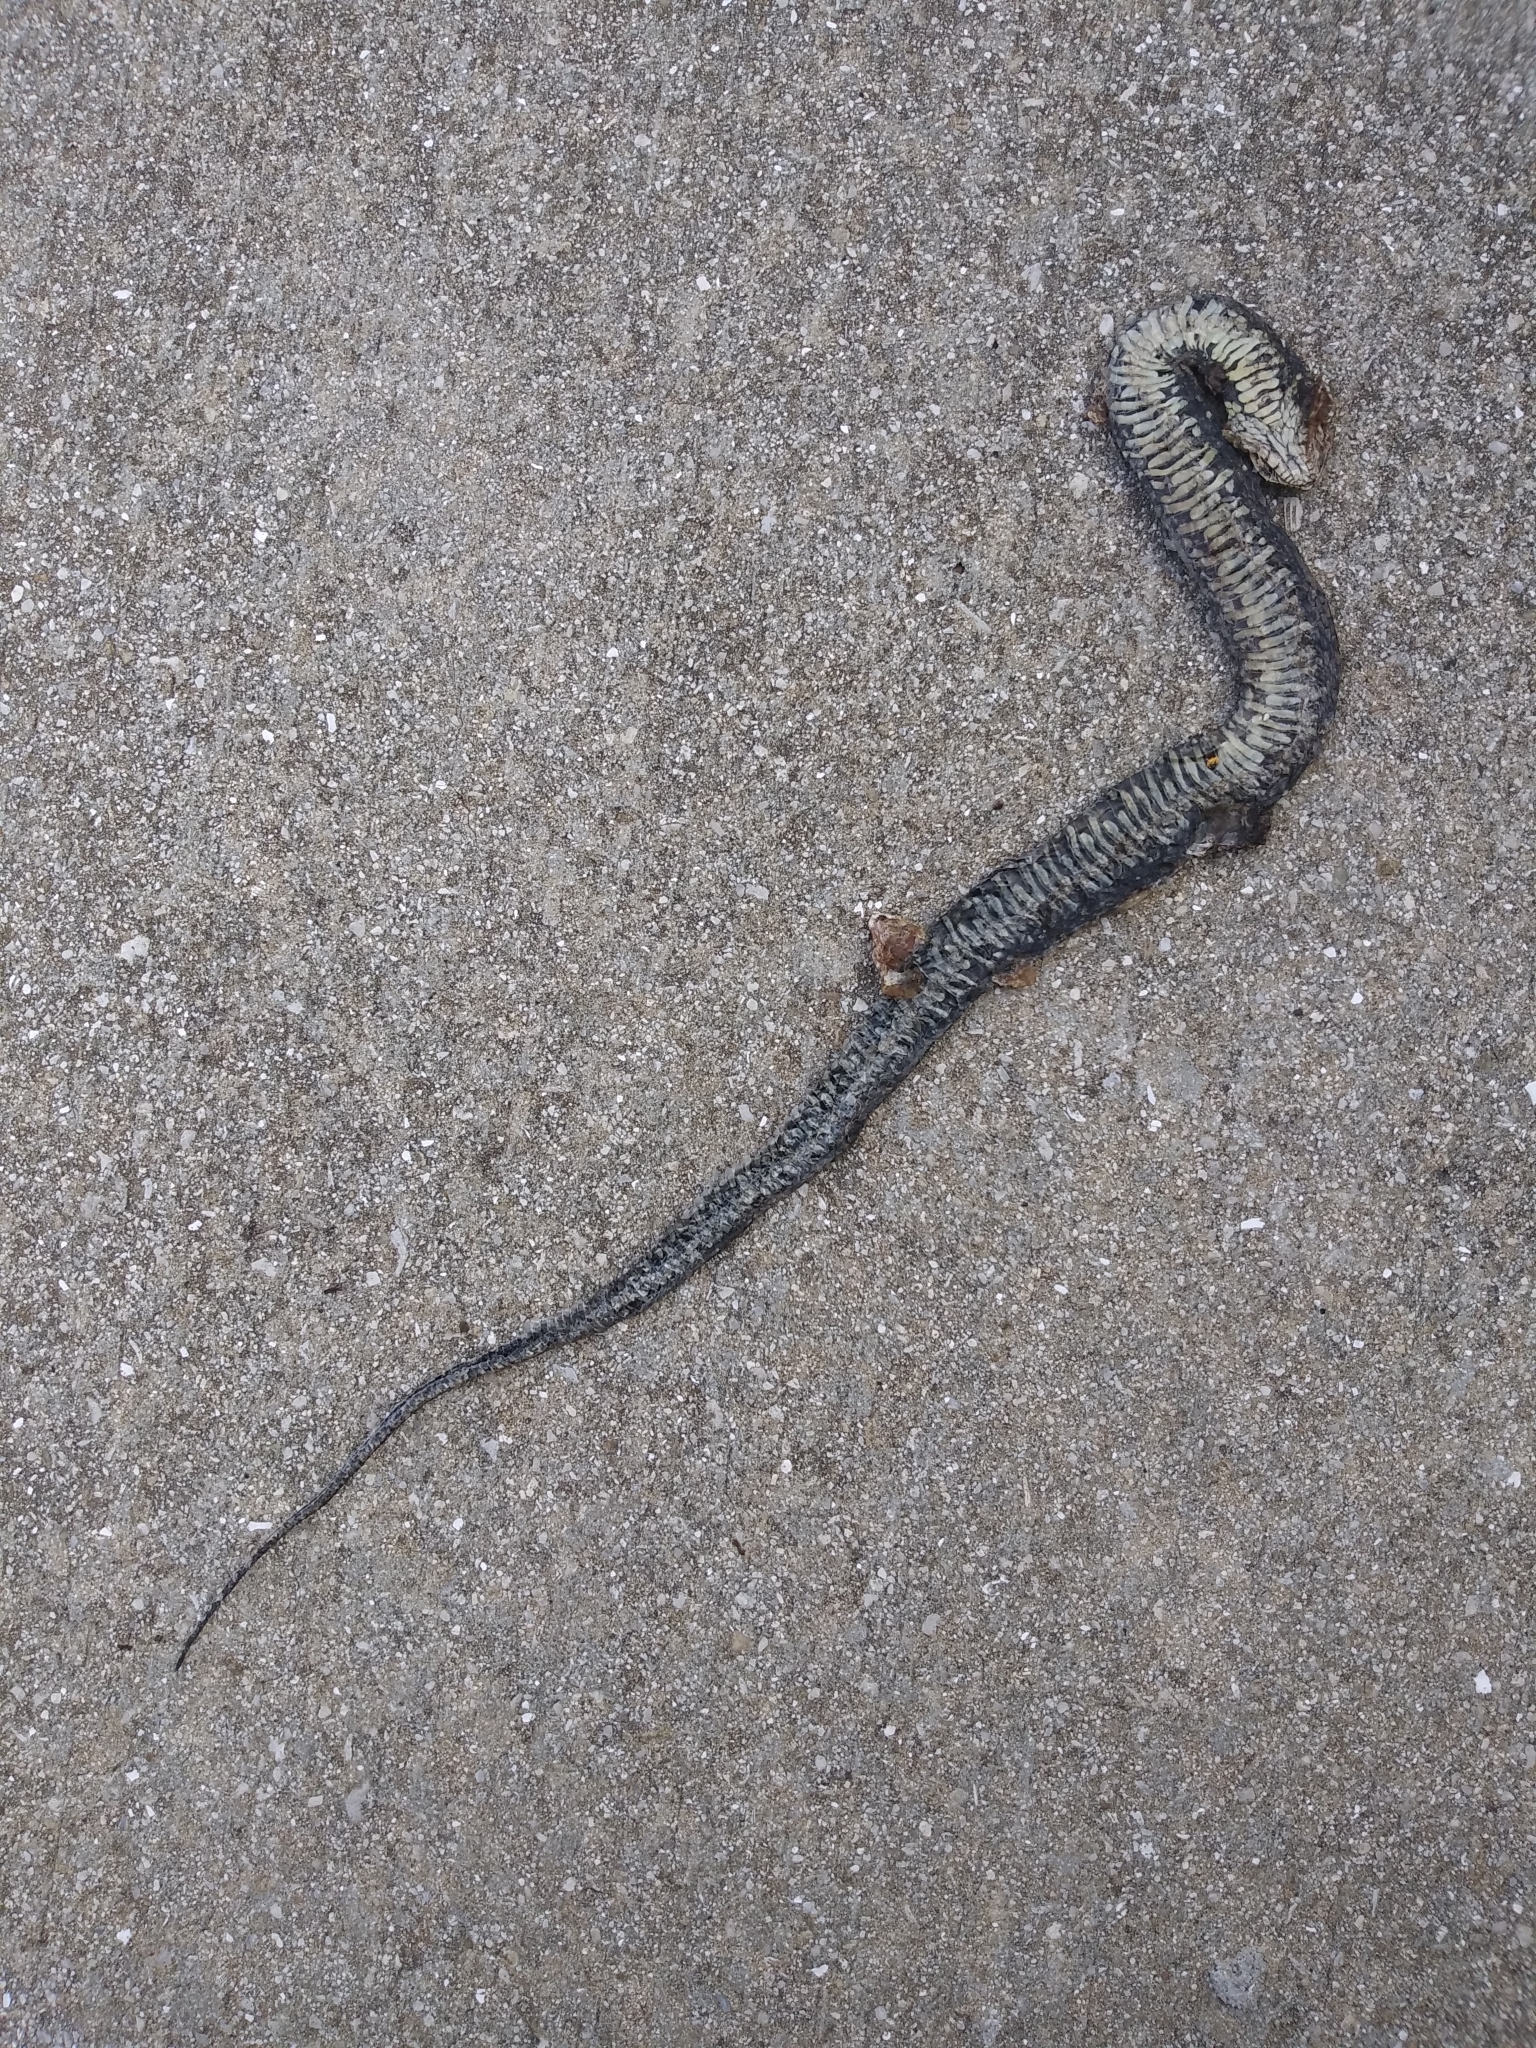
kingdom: Animalia
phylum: Chordata
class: Squamata
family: Colubridae
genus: Nerodia
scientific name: Nerodia fasciata
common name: Southern water snake
